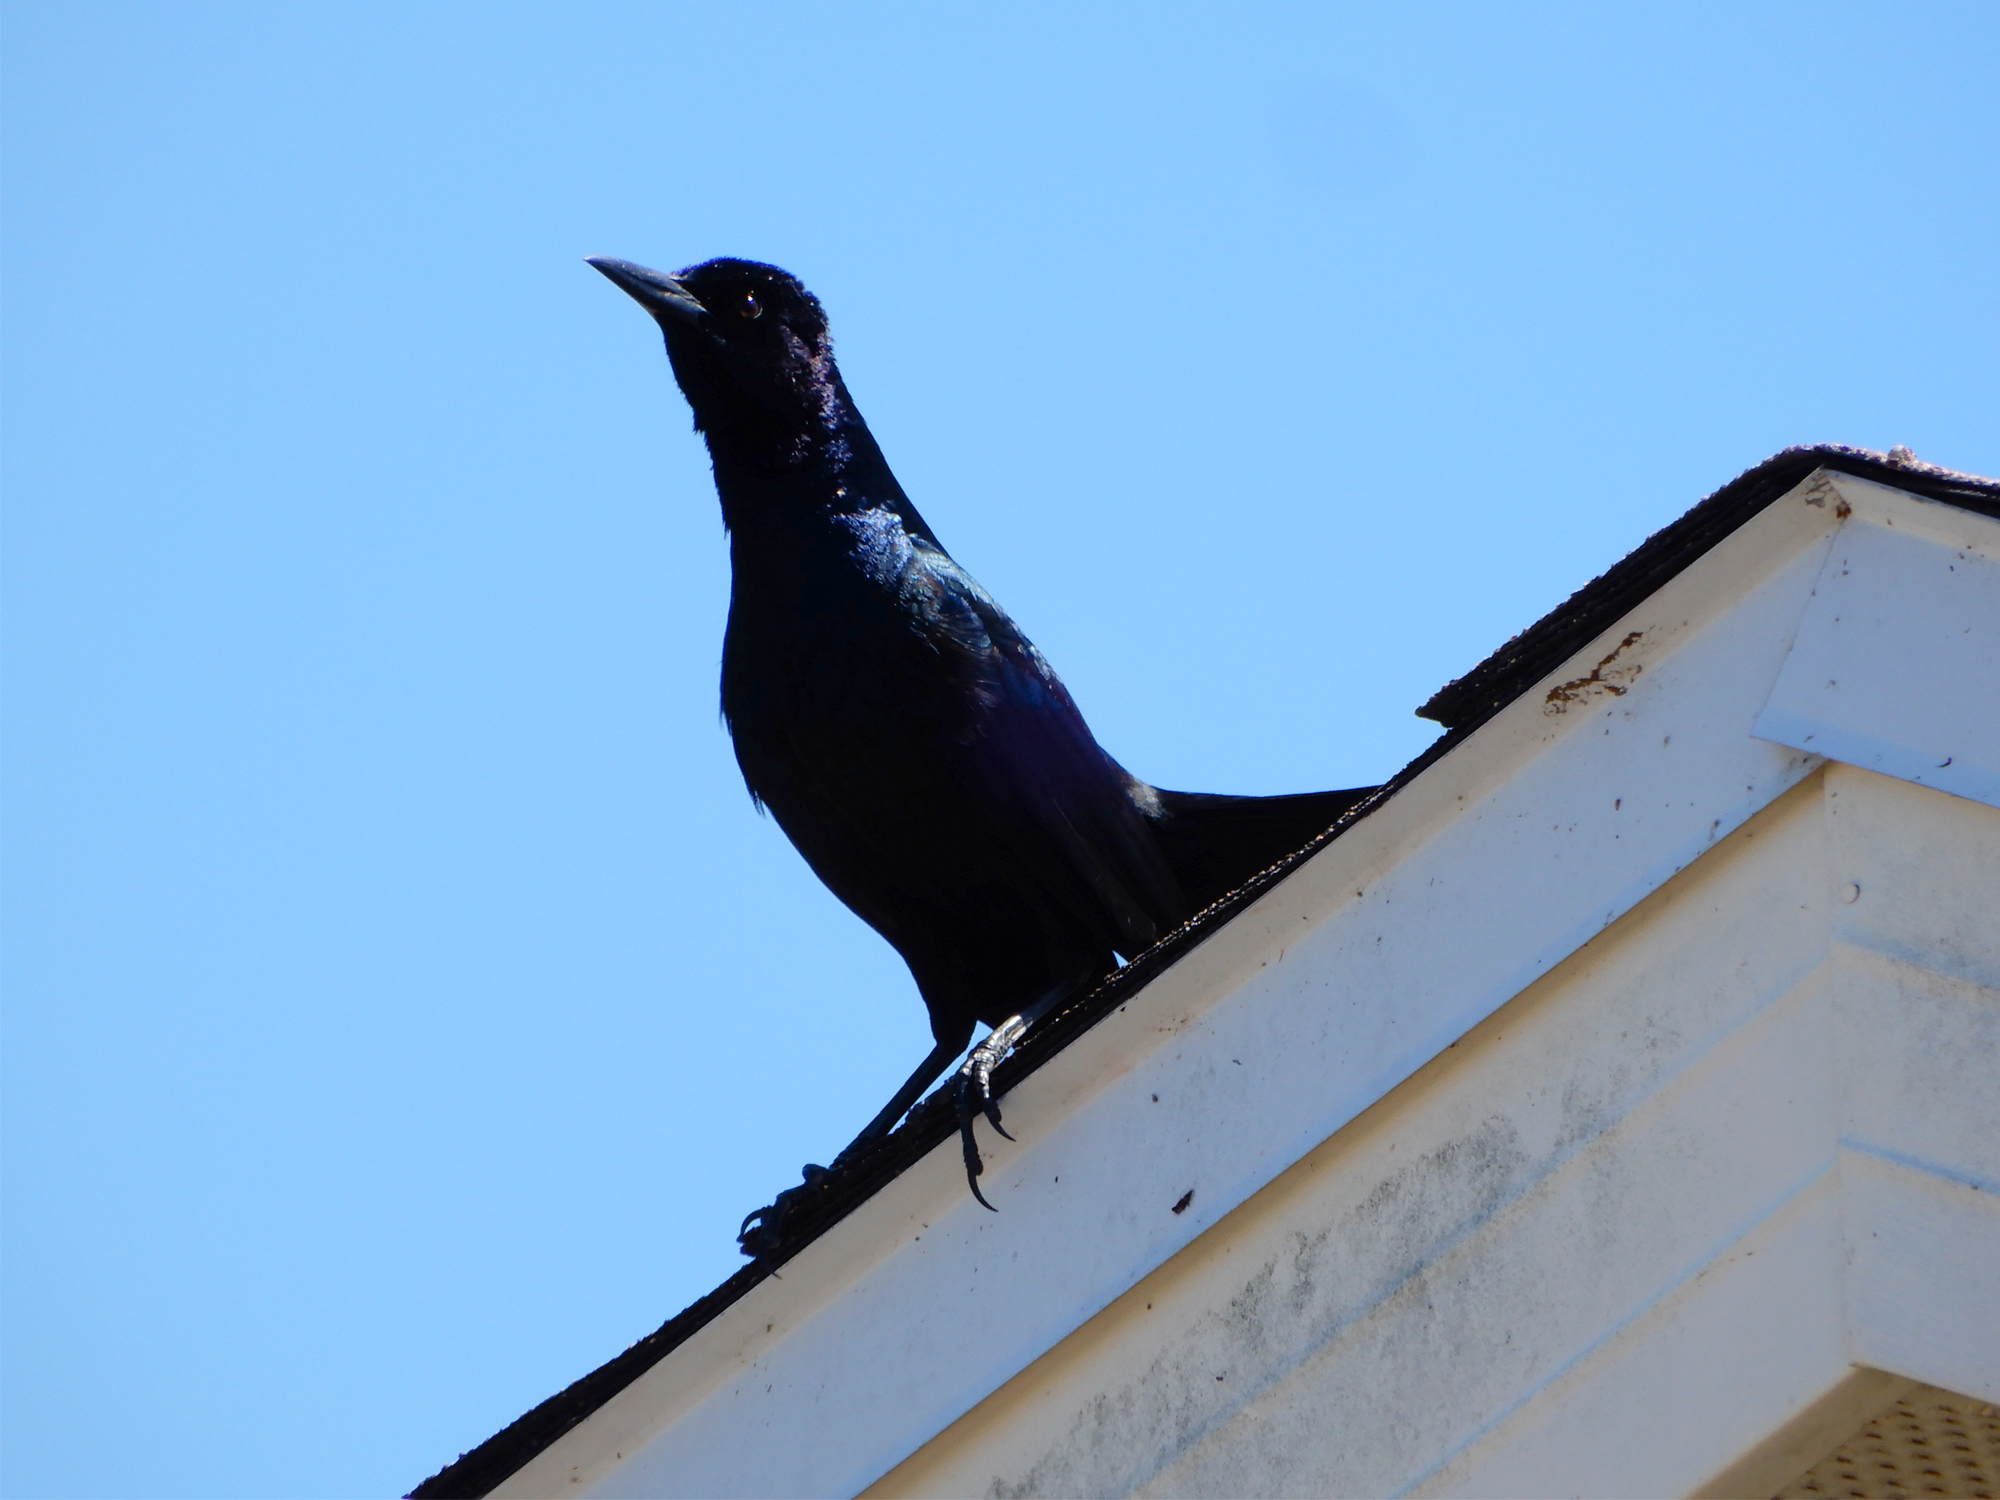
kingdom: Animalia
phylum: Chordata
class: Aves
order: Passeriformes
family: Icteridae
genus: Quiscalus
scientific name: Quiscalus major
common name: Boat-tailed grackle
